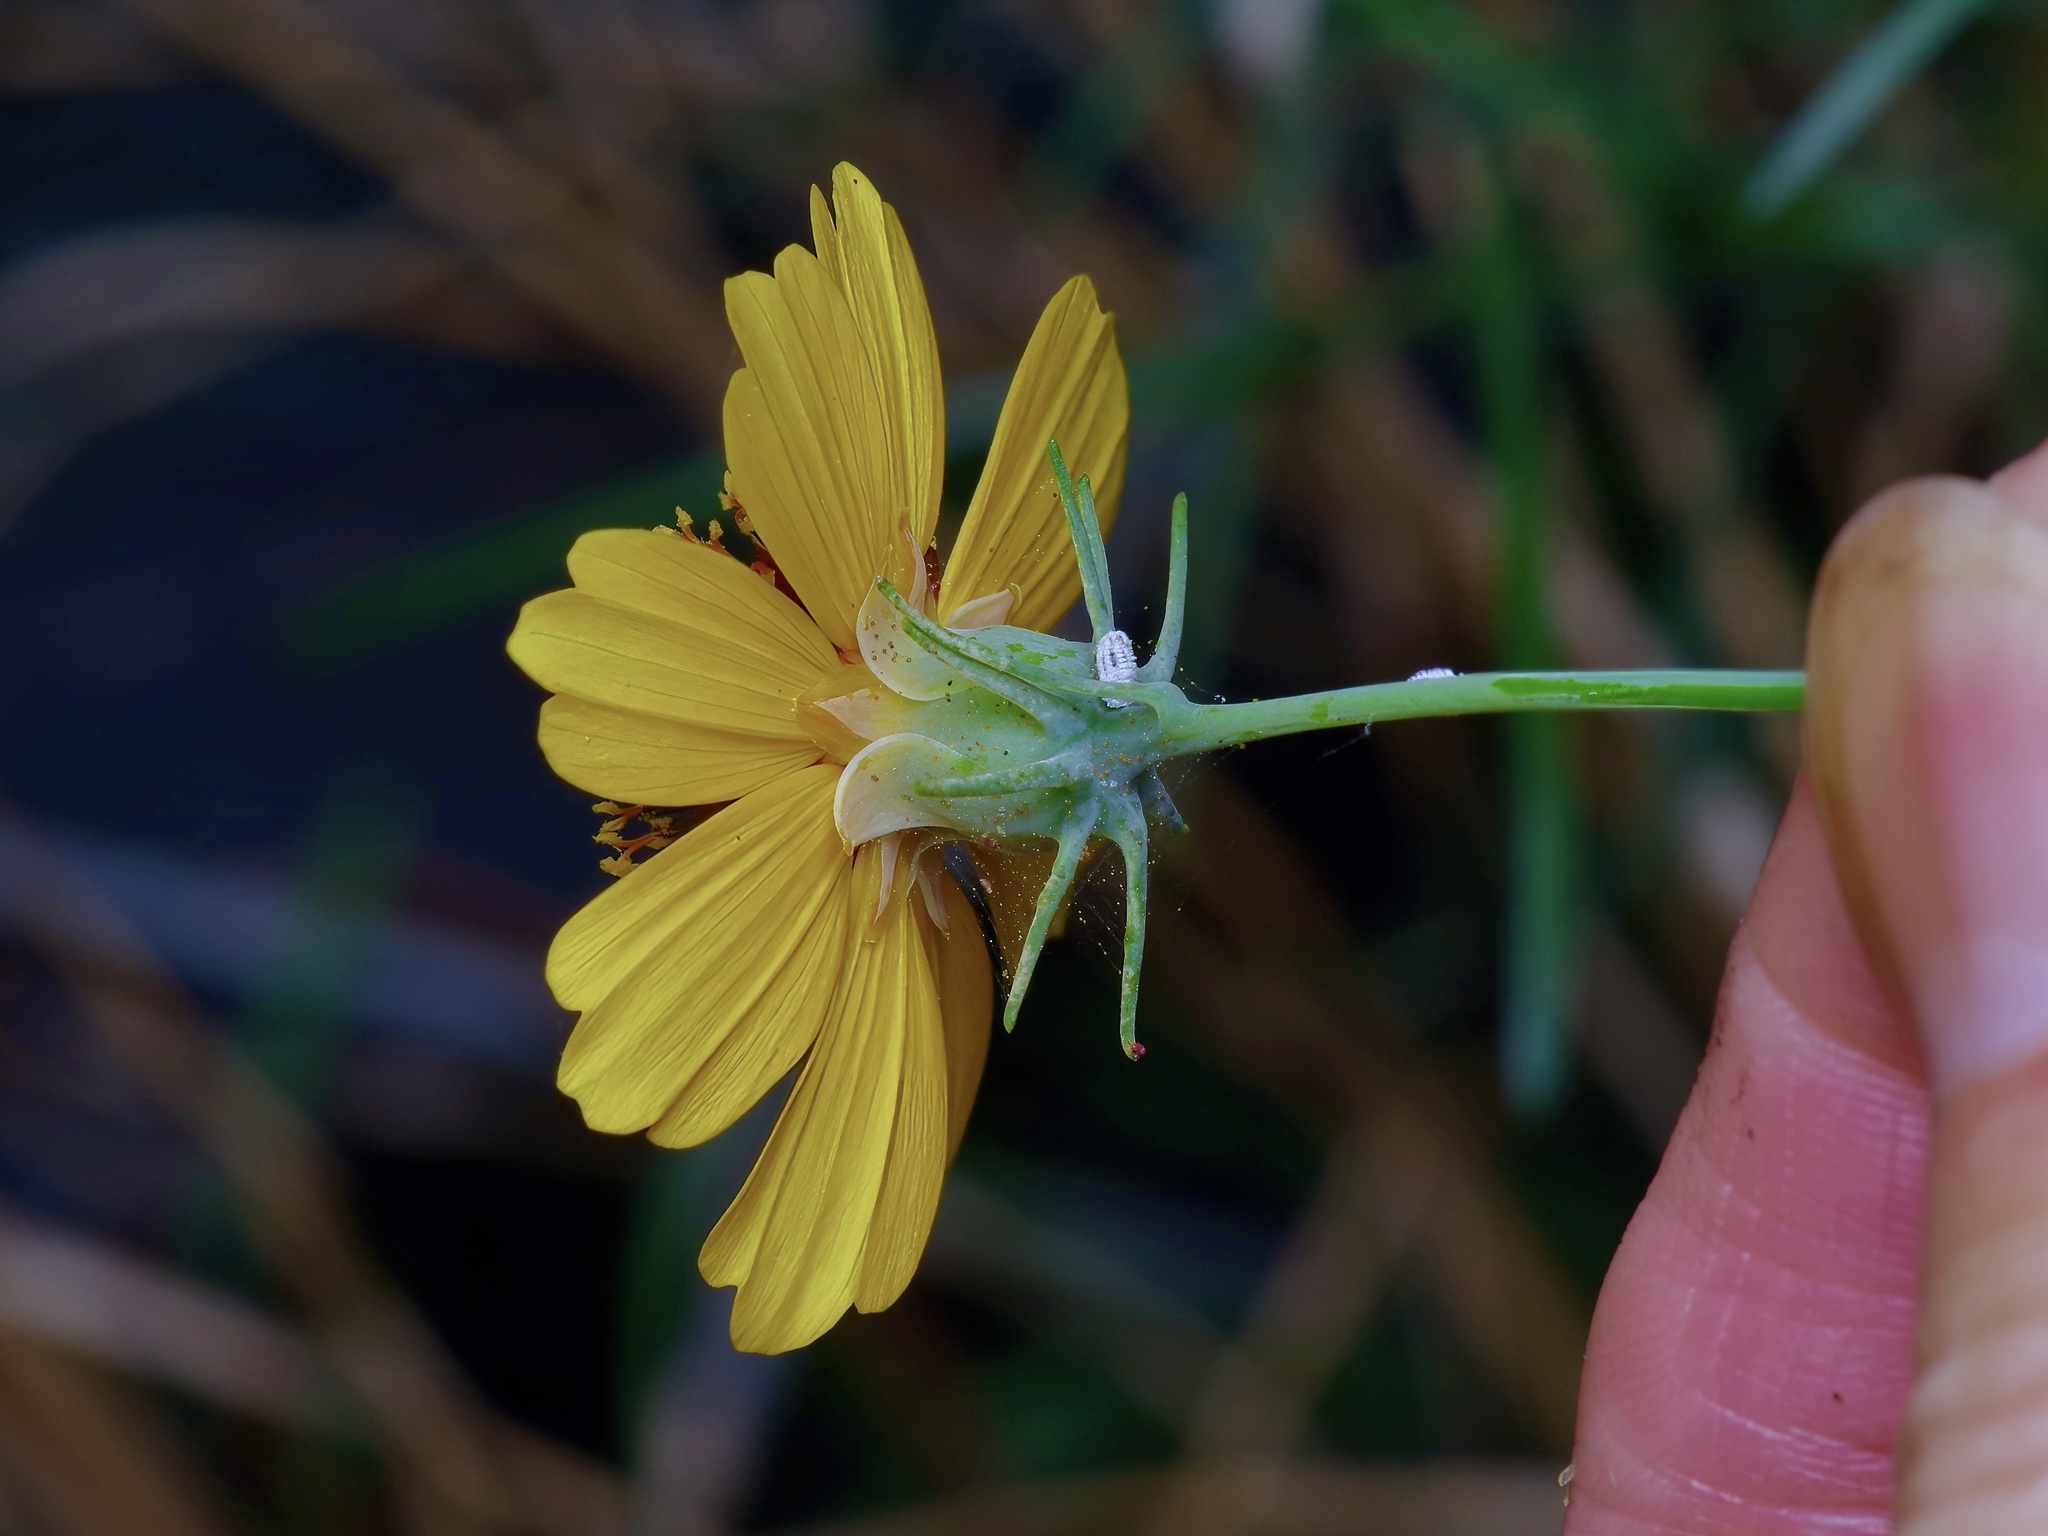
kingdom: Plantae
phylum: Tracheophyta
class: Magnoliopsida
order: Asterales
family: Asteraceae
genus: Thelesperma
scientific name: Thelesperma filifolium
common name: Stiff greenthread
